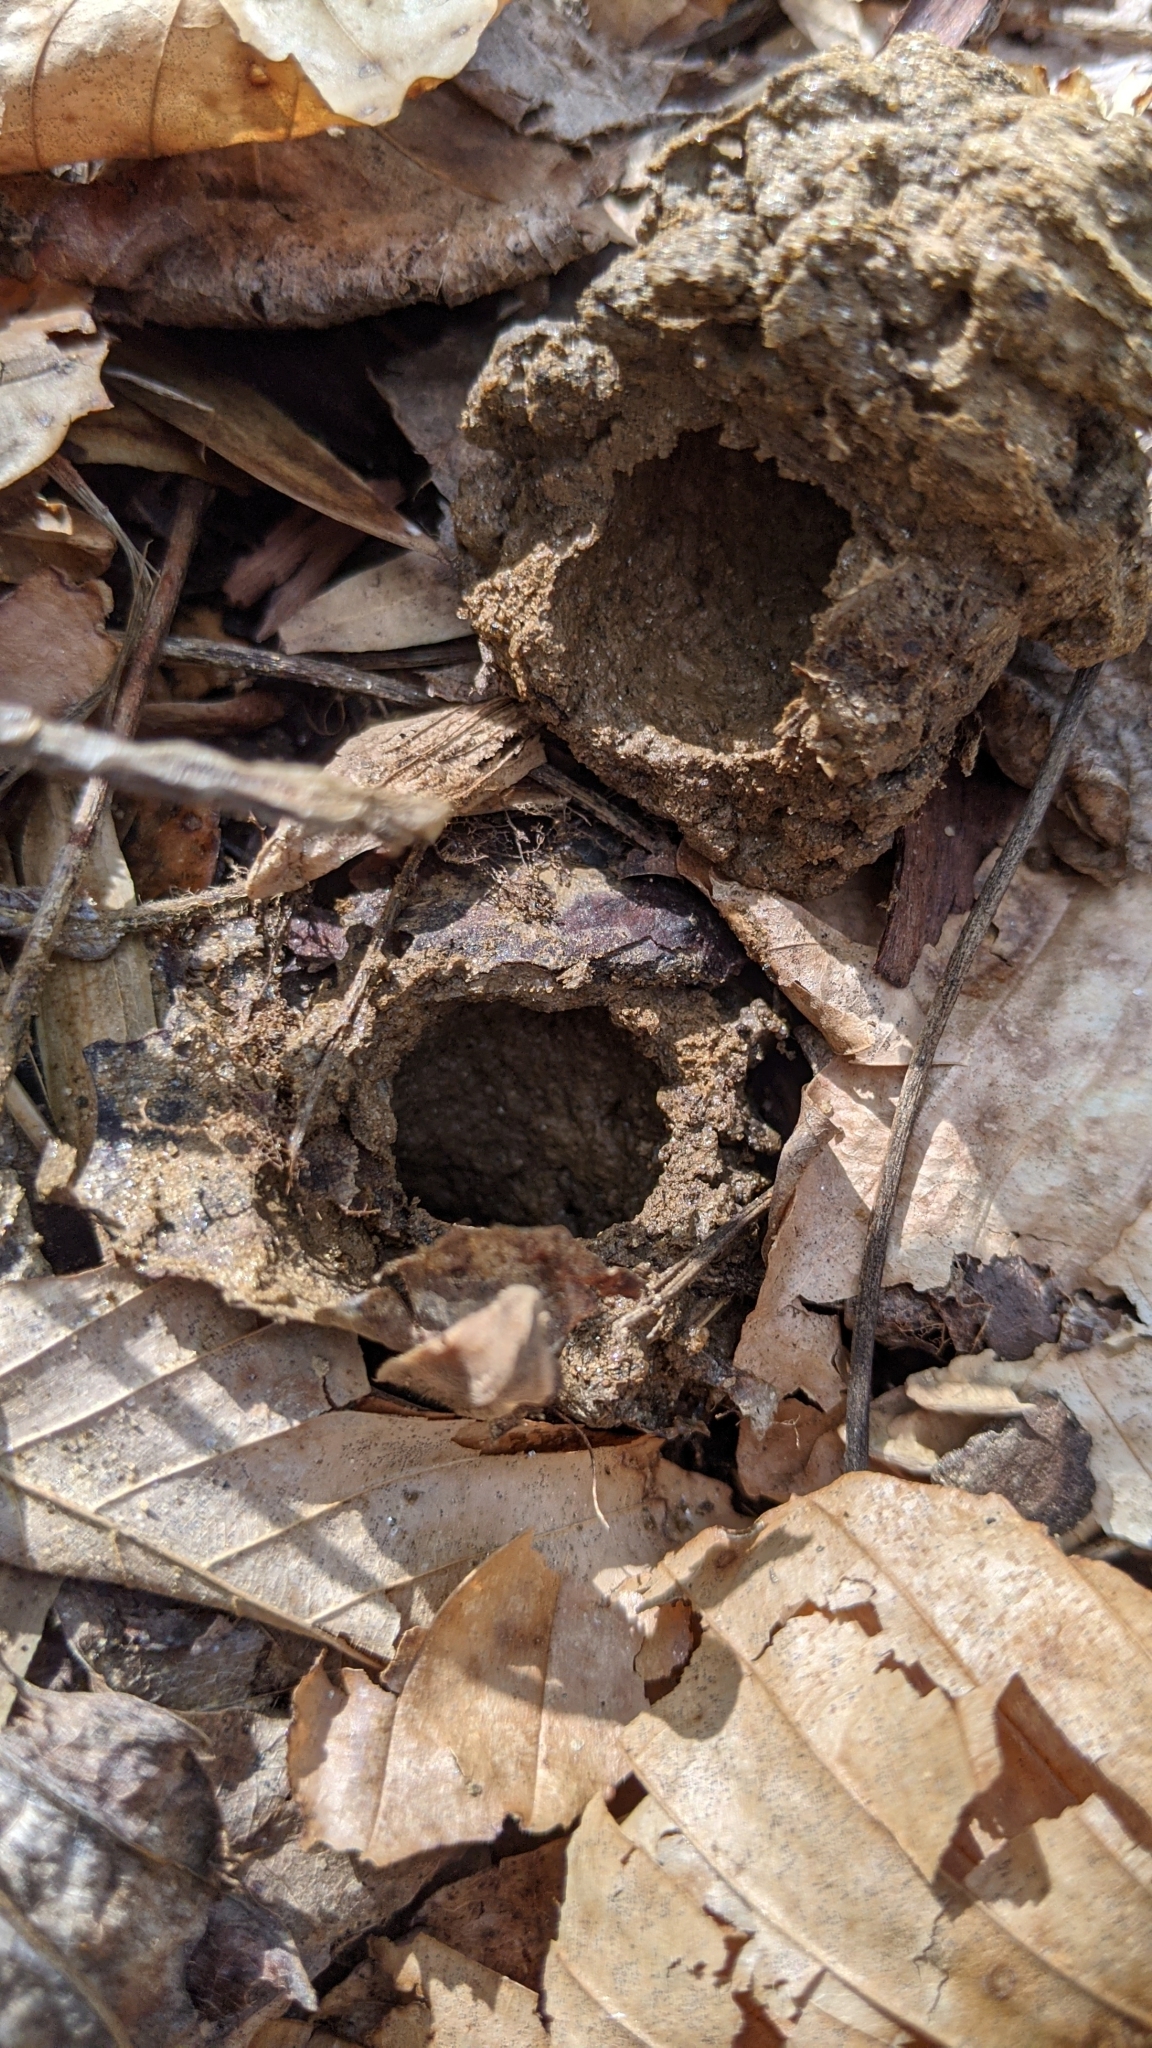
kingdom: Animalia
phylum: Arthropoda
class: Insecta
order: Hemiptera
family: Cicadidae
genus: Magicicada
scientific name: Magicicada
